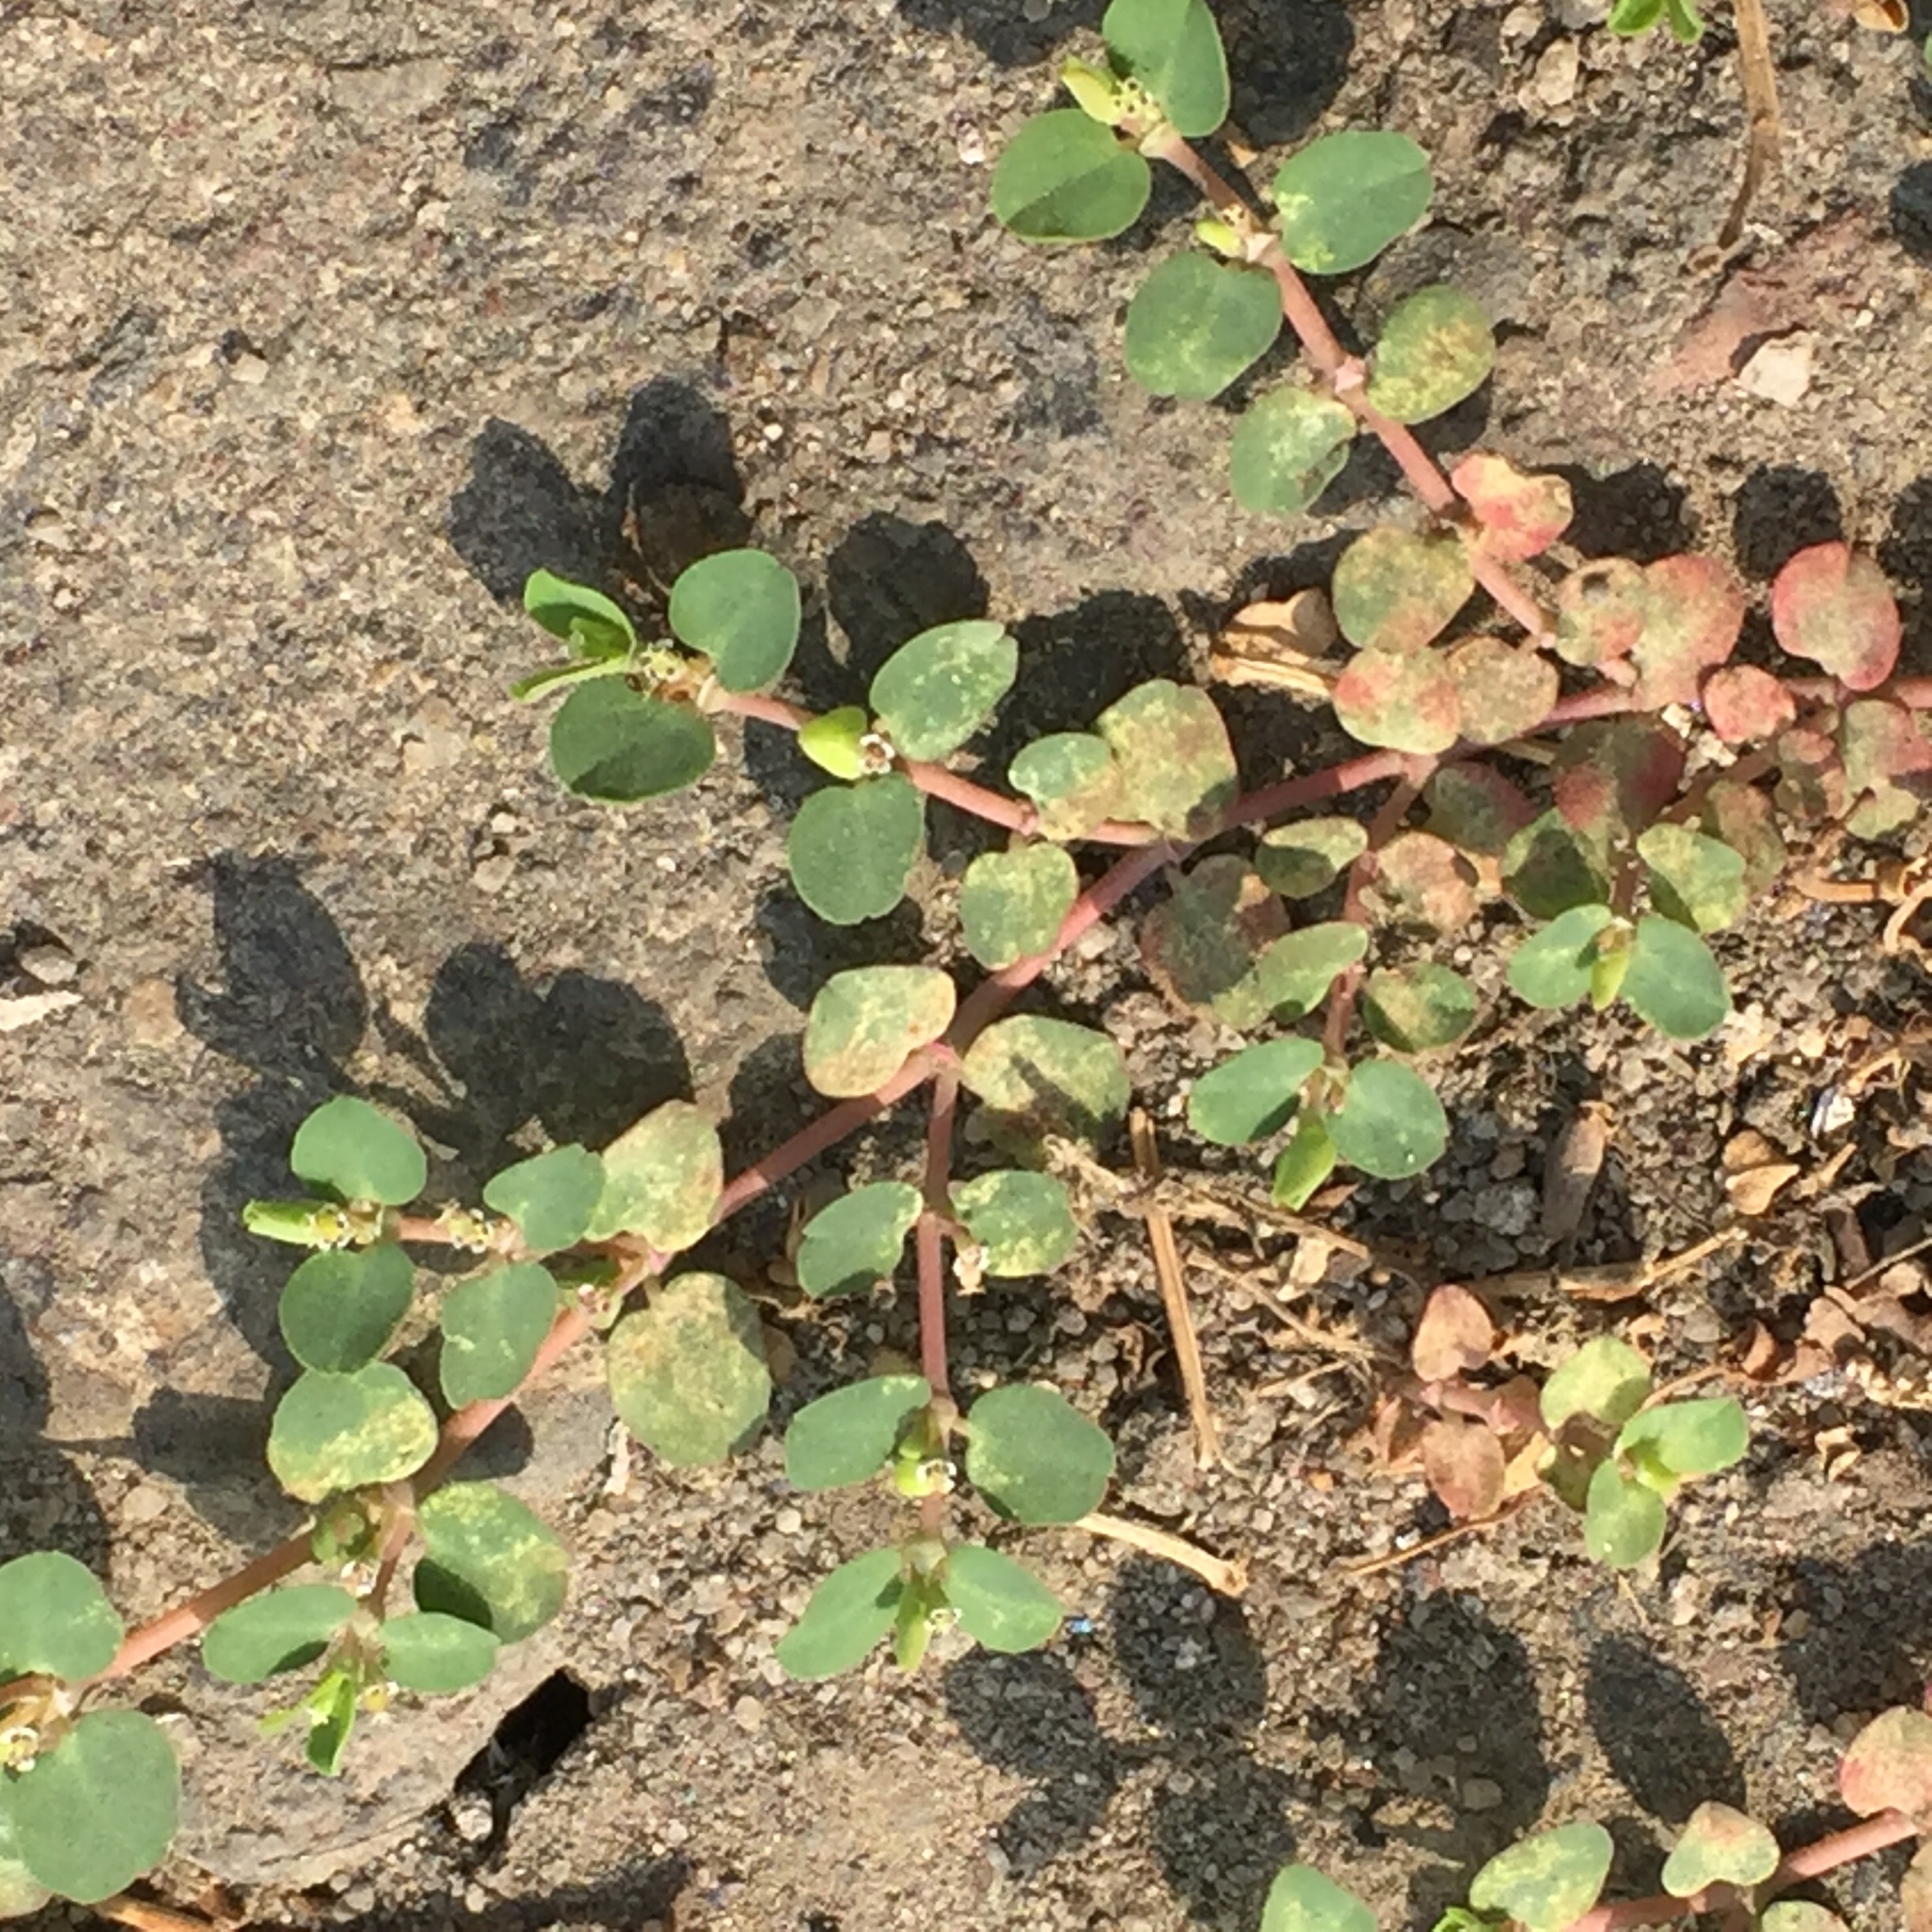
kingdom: Plantae
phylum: Tracheophyta
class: Magnoliopsida
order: Malpighiales
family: Euphorbiaceae
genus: Euphorbia
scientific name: Euphorbia serpens
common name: Matted sandmat
